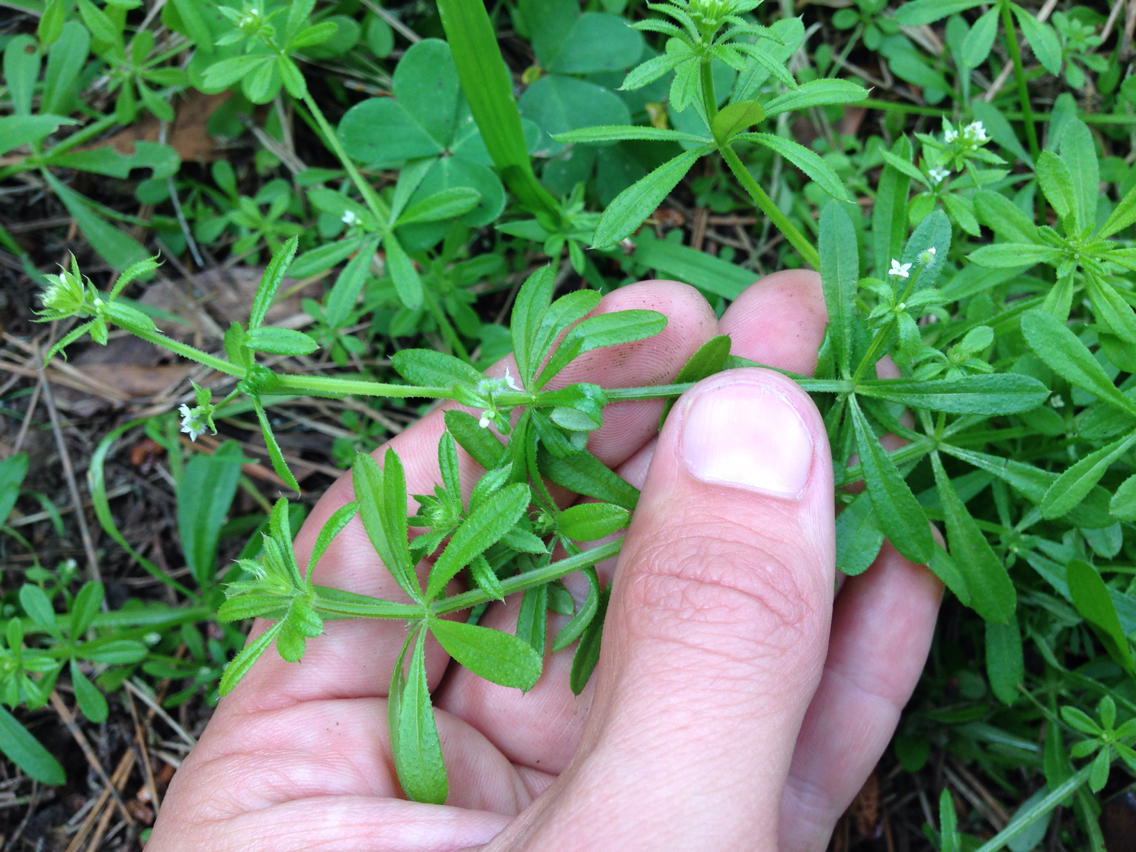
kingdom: Plantae
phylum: Tracheophyta
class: Magnoliopsida
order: Gentianales
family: Rubiaceae
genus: Galium
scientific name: Galium aparine
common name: Cleavers
